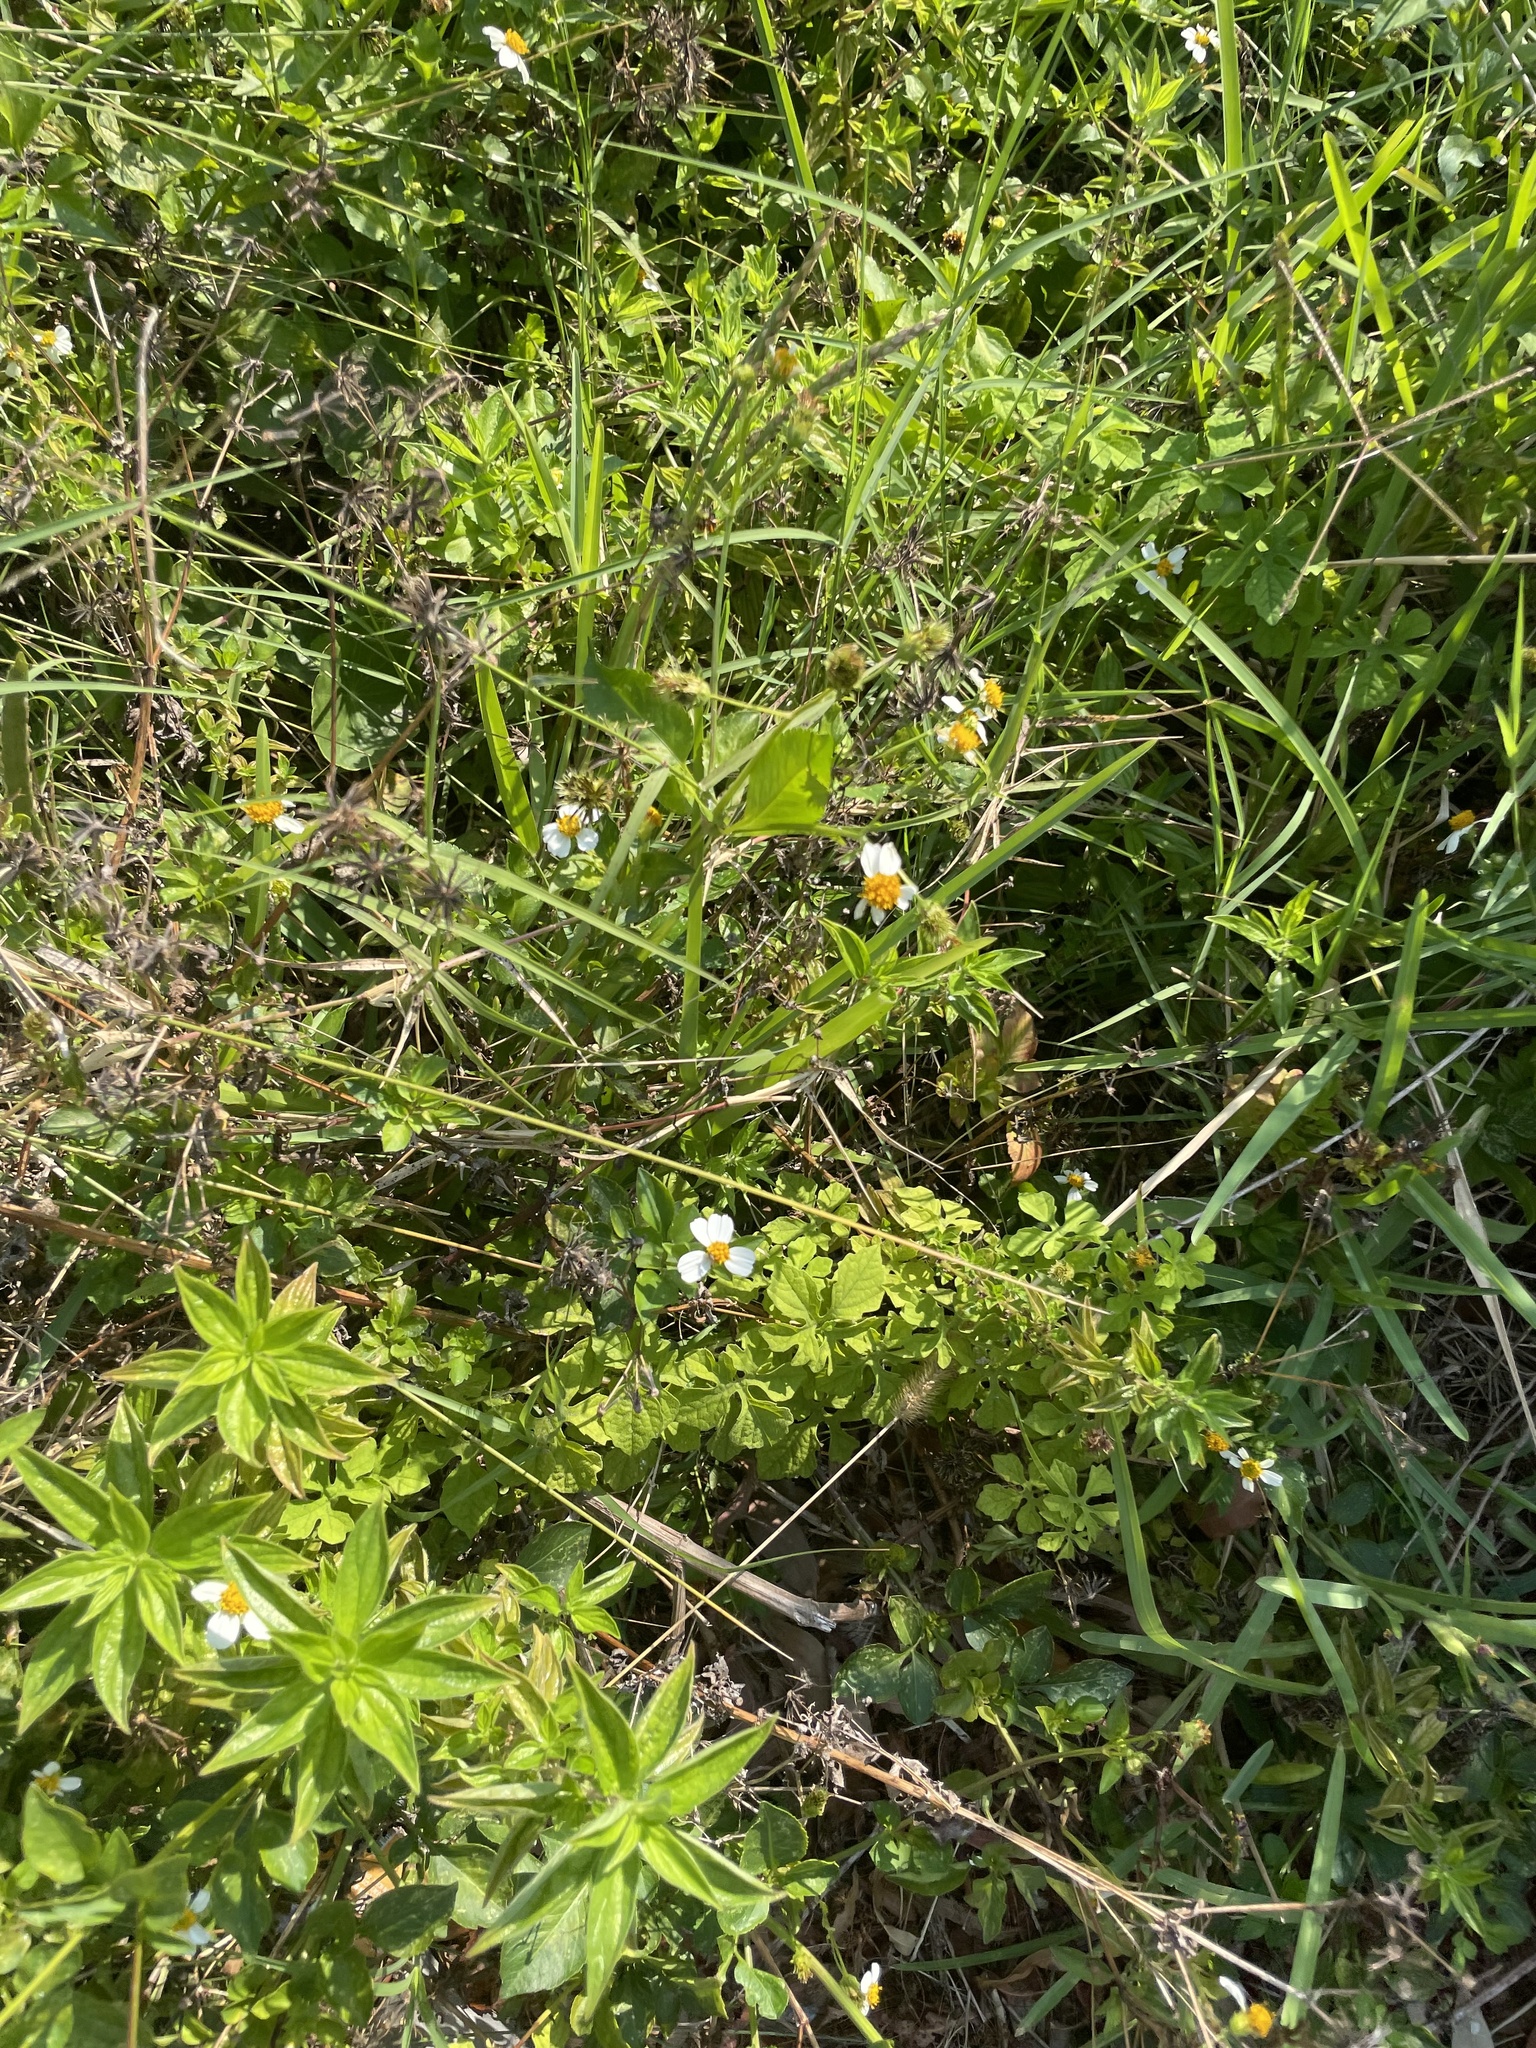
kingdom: Plantae
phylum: Tracheophyta
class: Magnoliopsida
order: Asterales
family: Asteraceae
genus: Bidens
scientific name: Bidens alba
